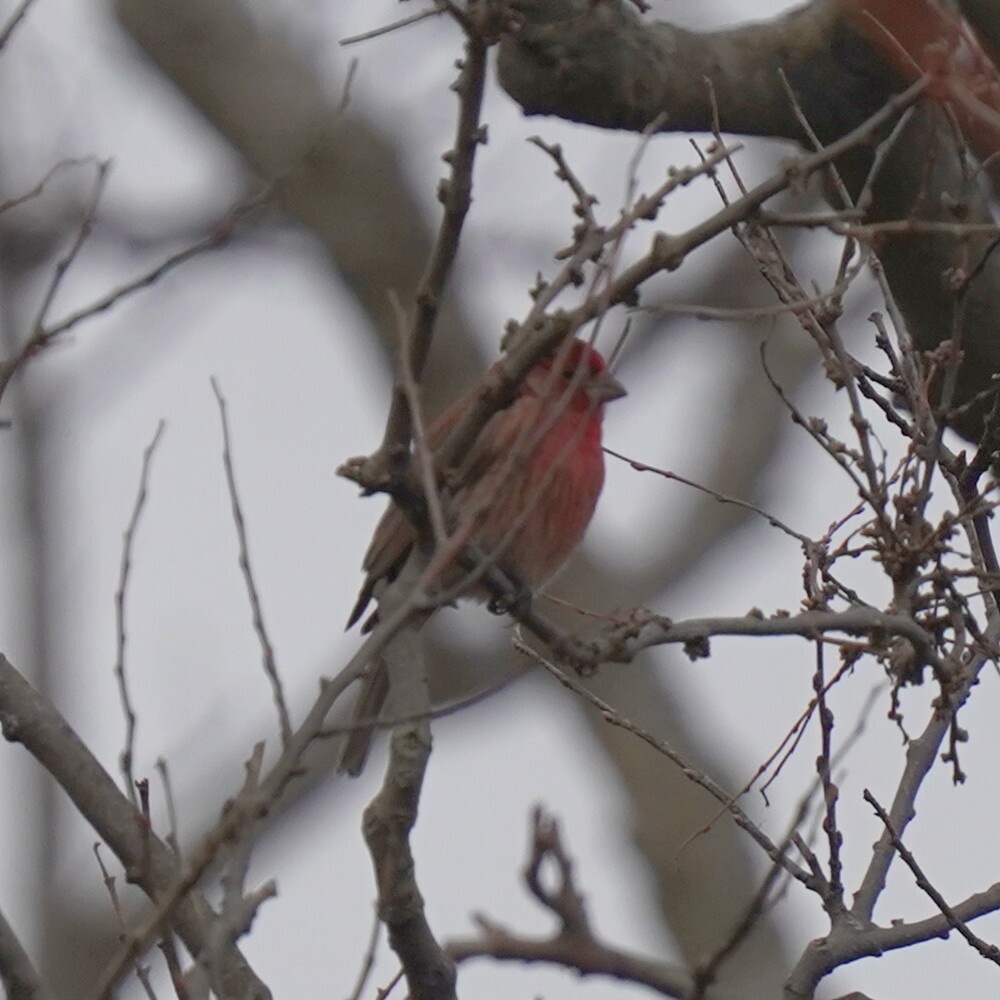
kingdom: Animalia
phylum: Chordata
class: Aves
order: Passeriformes
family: Fringillidae
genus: Haemorhous
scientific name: Haemorhous mexicanus
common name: House finch
